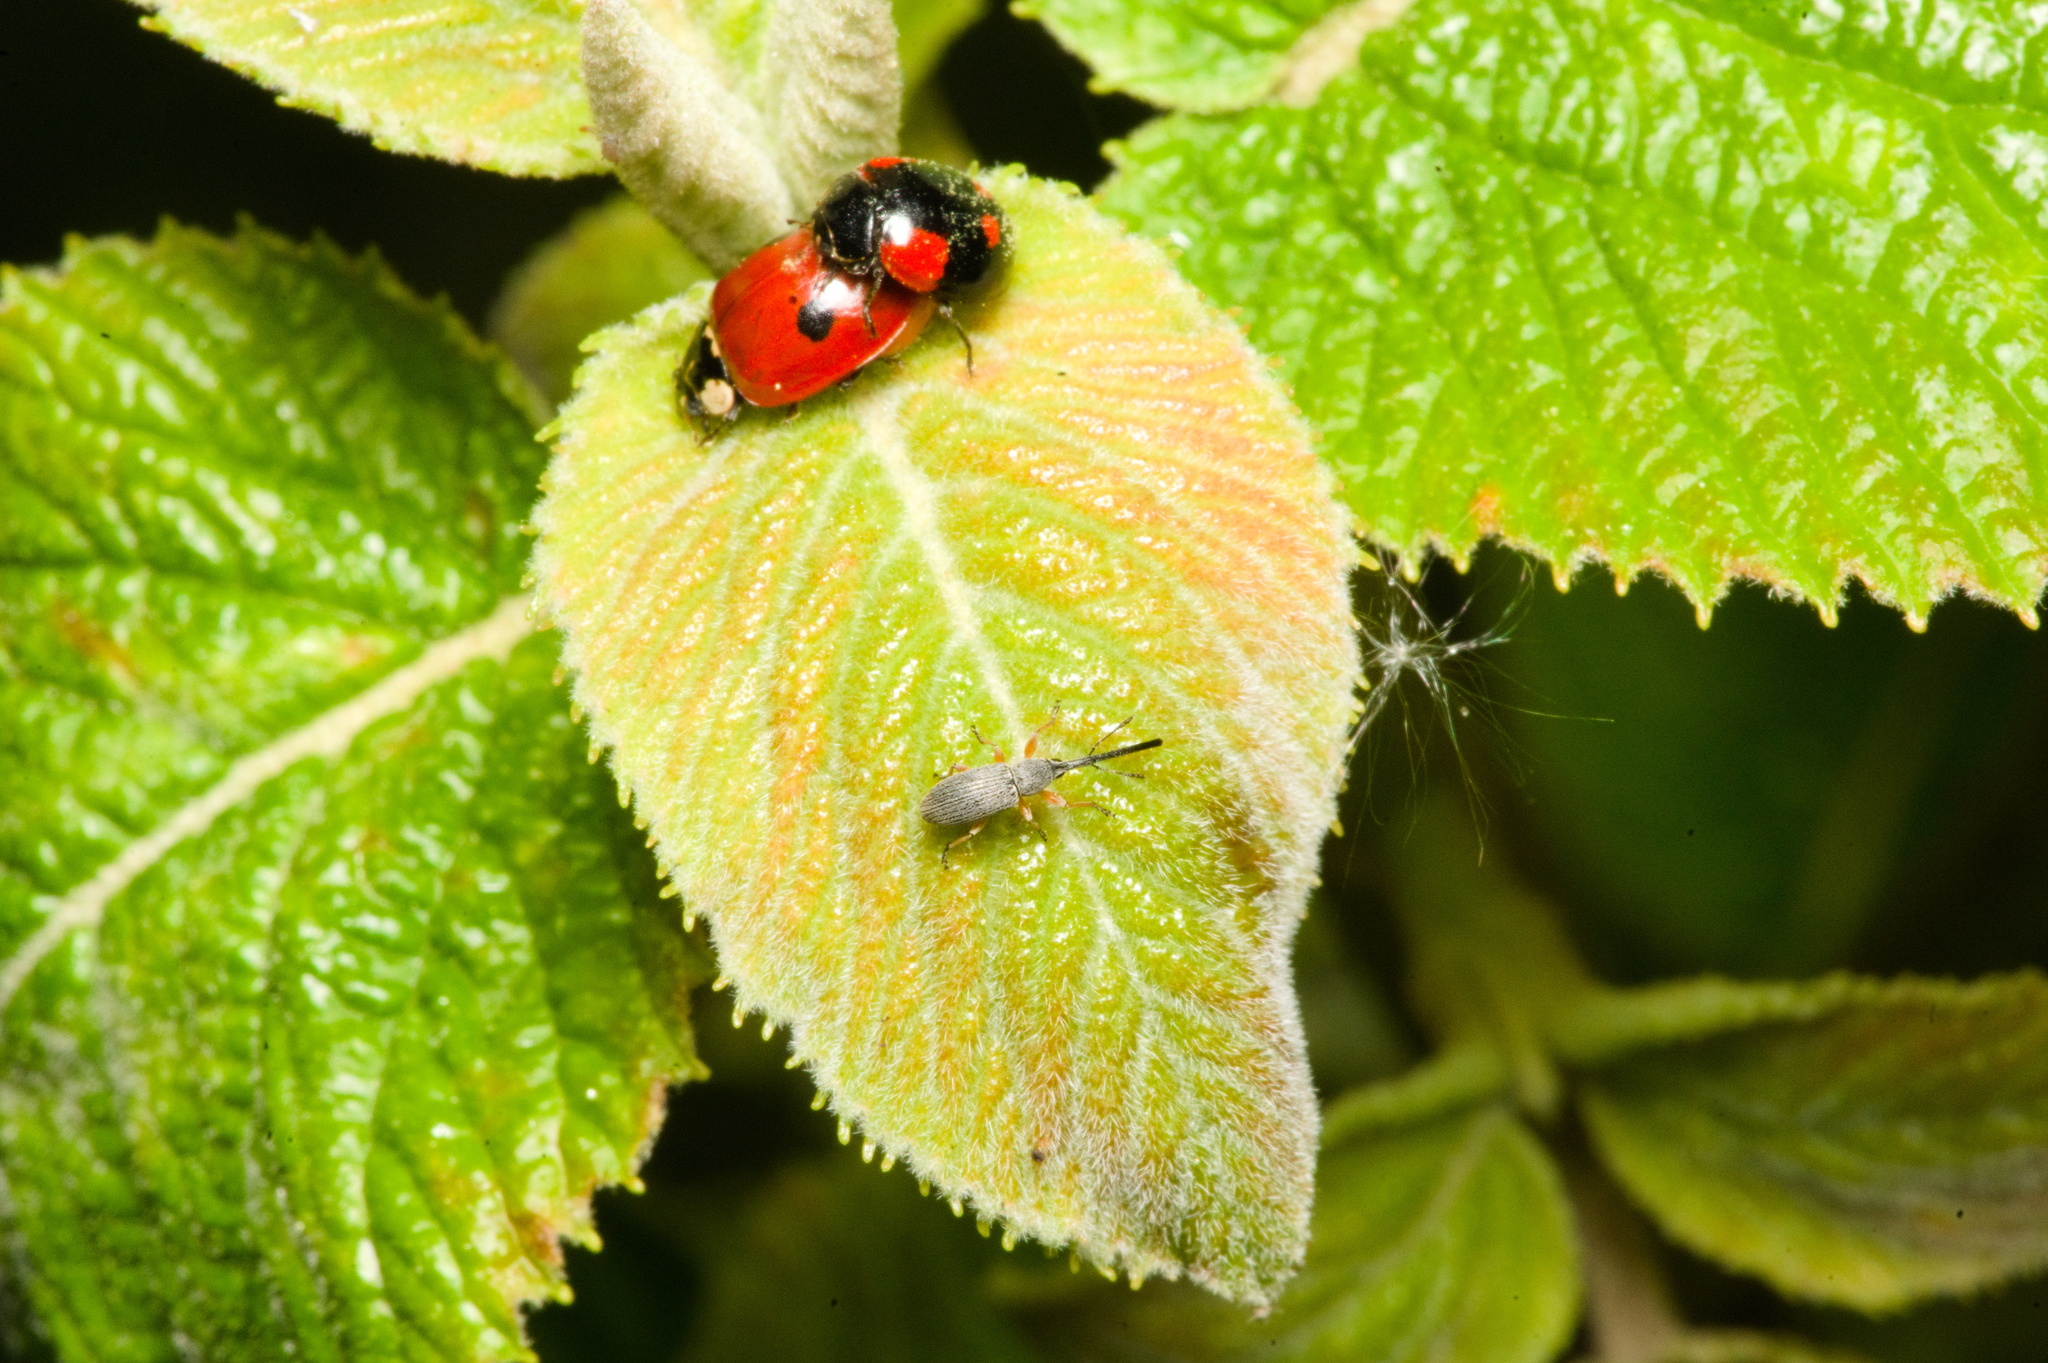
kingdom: Animalia
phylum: Arthropoda
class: Insecta
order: Coleoptera
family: Brentidae
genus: Rhopalapion
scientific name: Rhopalapion longirostre
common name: Hollyhock weevil
